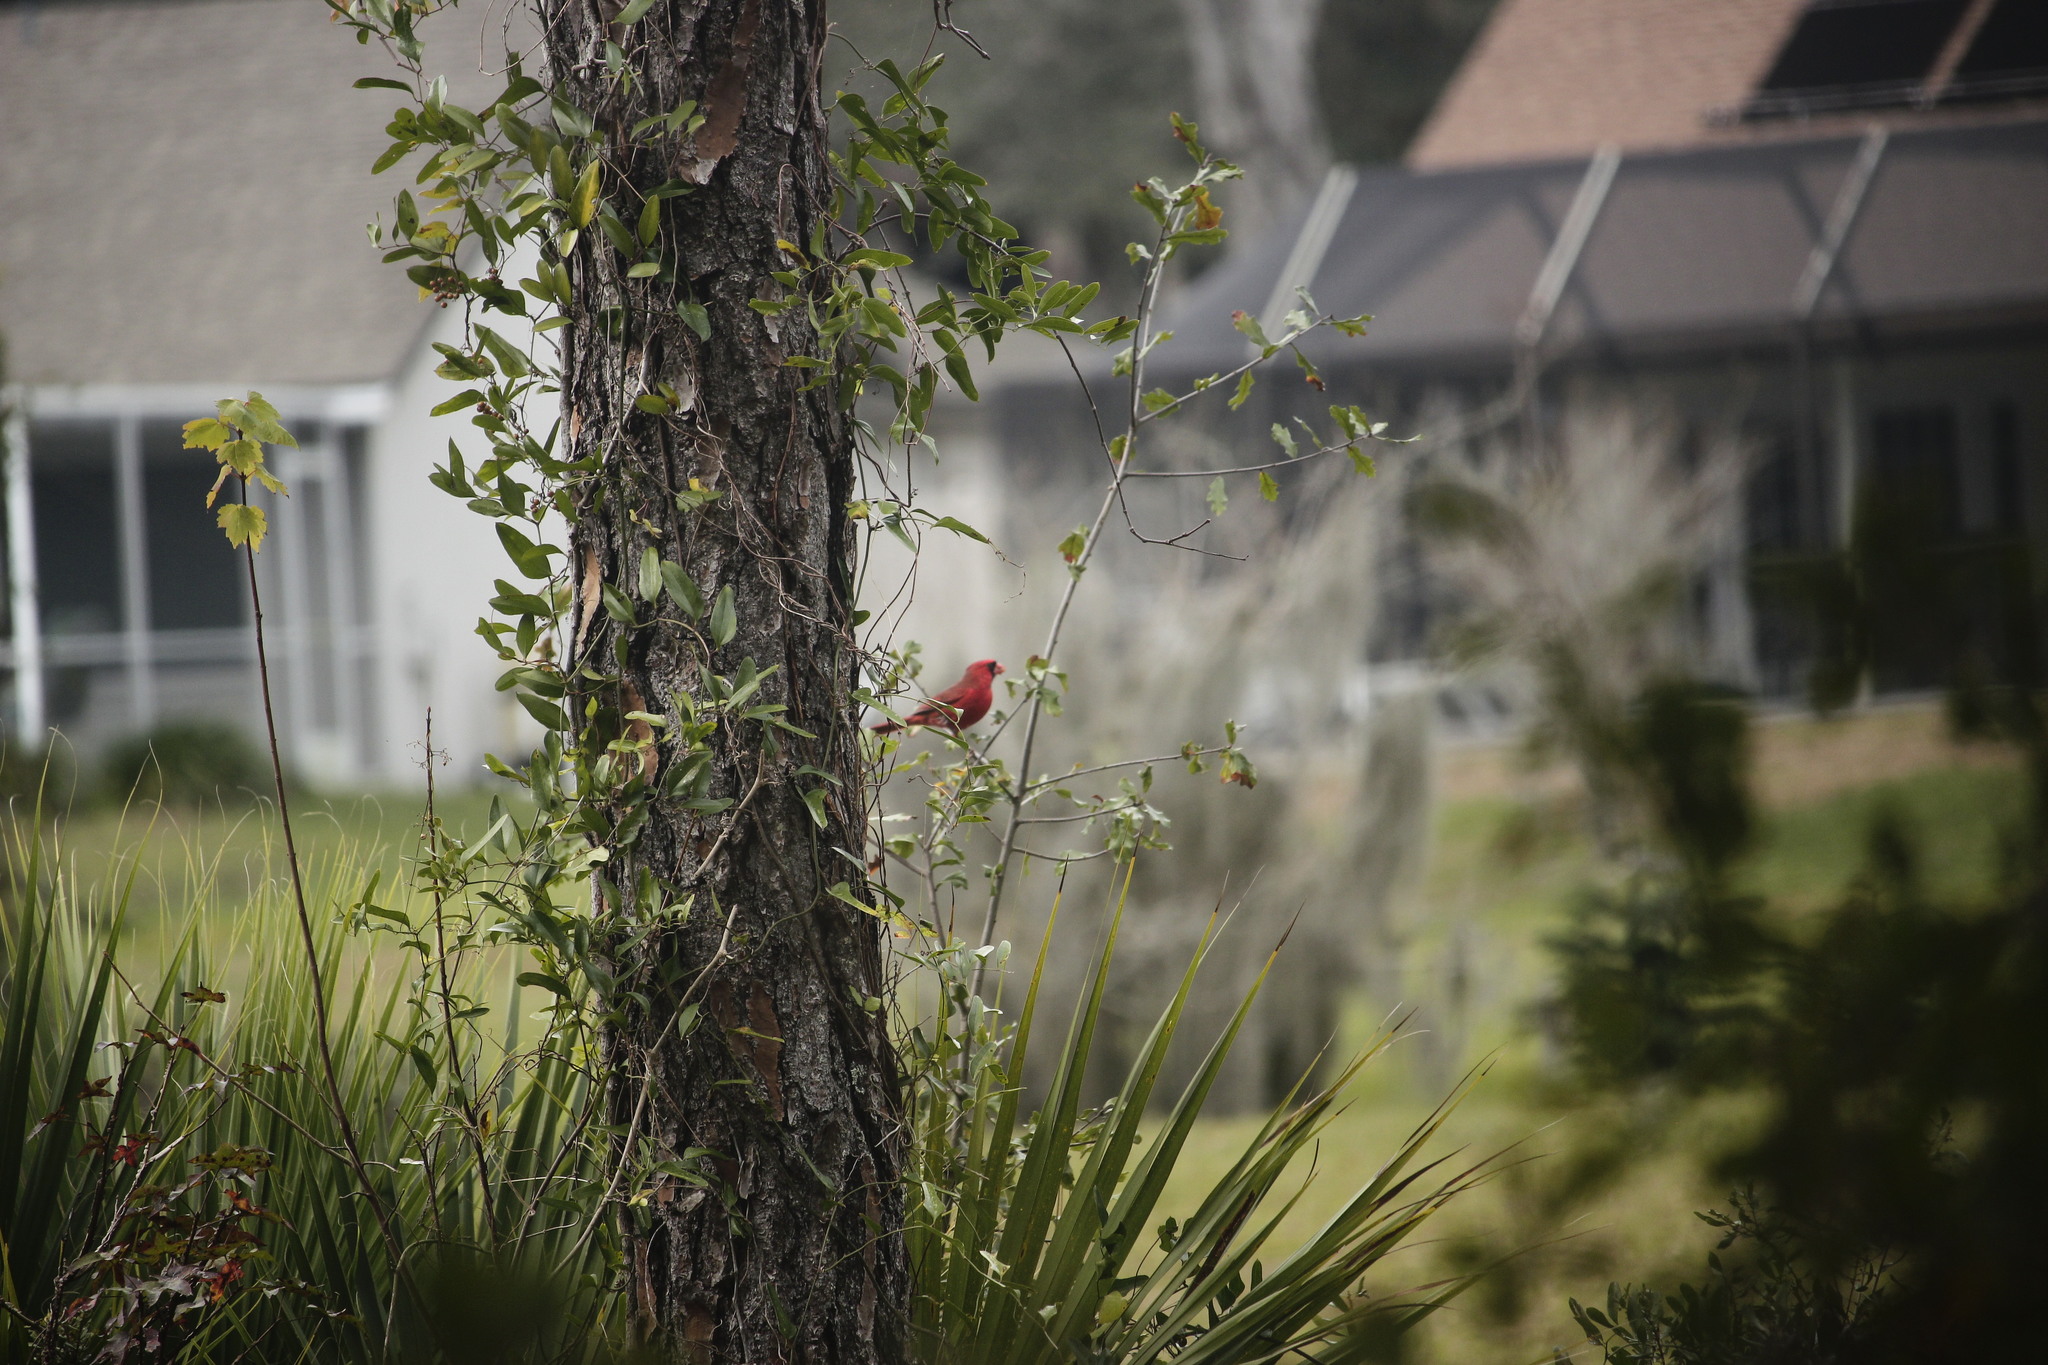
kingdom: Animalia
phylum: Chordata
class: Aves
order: Passeriformes
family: Cardinalidae
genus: Cardinalis
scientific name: Cardinalis cardinalis
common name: Northern cardinal
